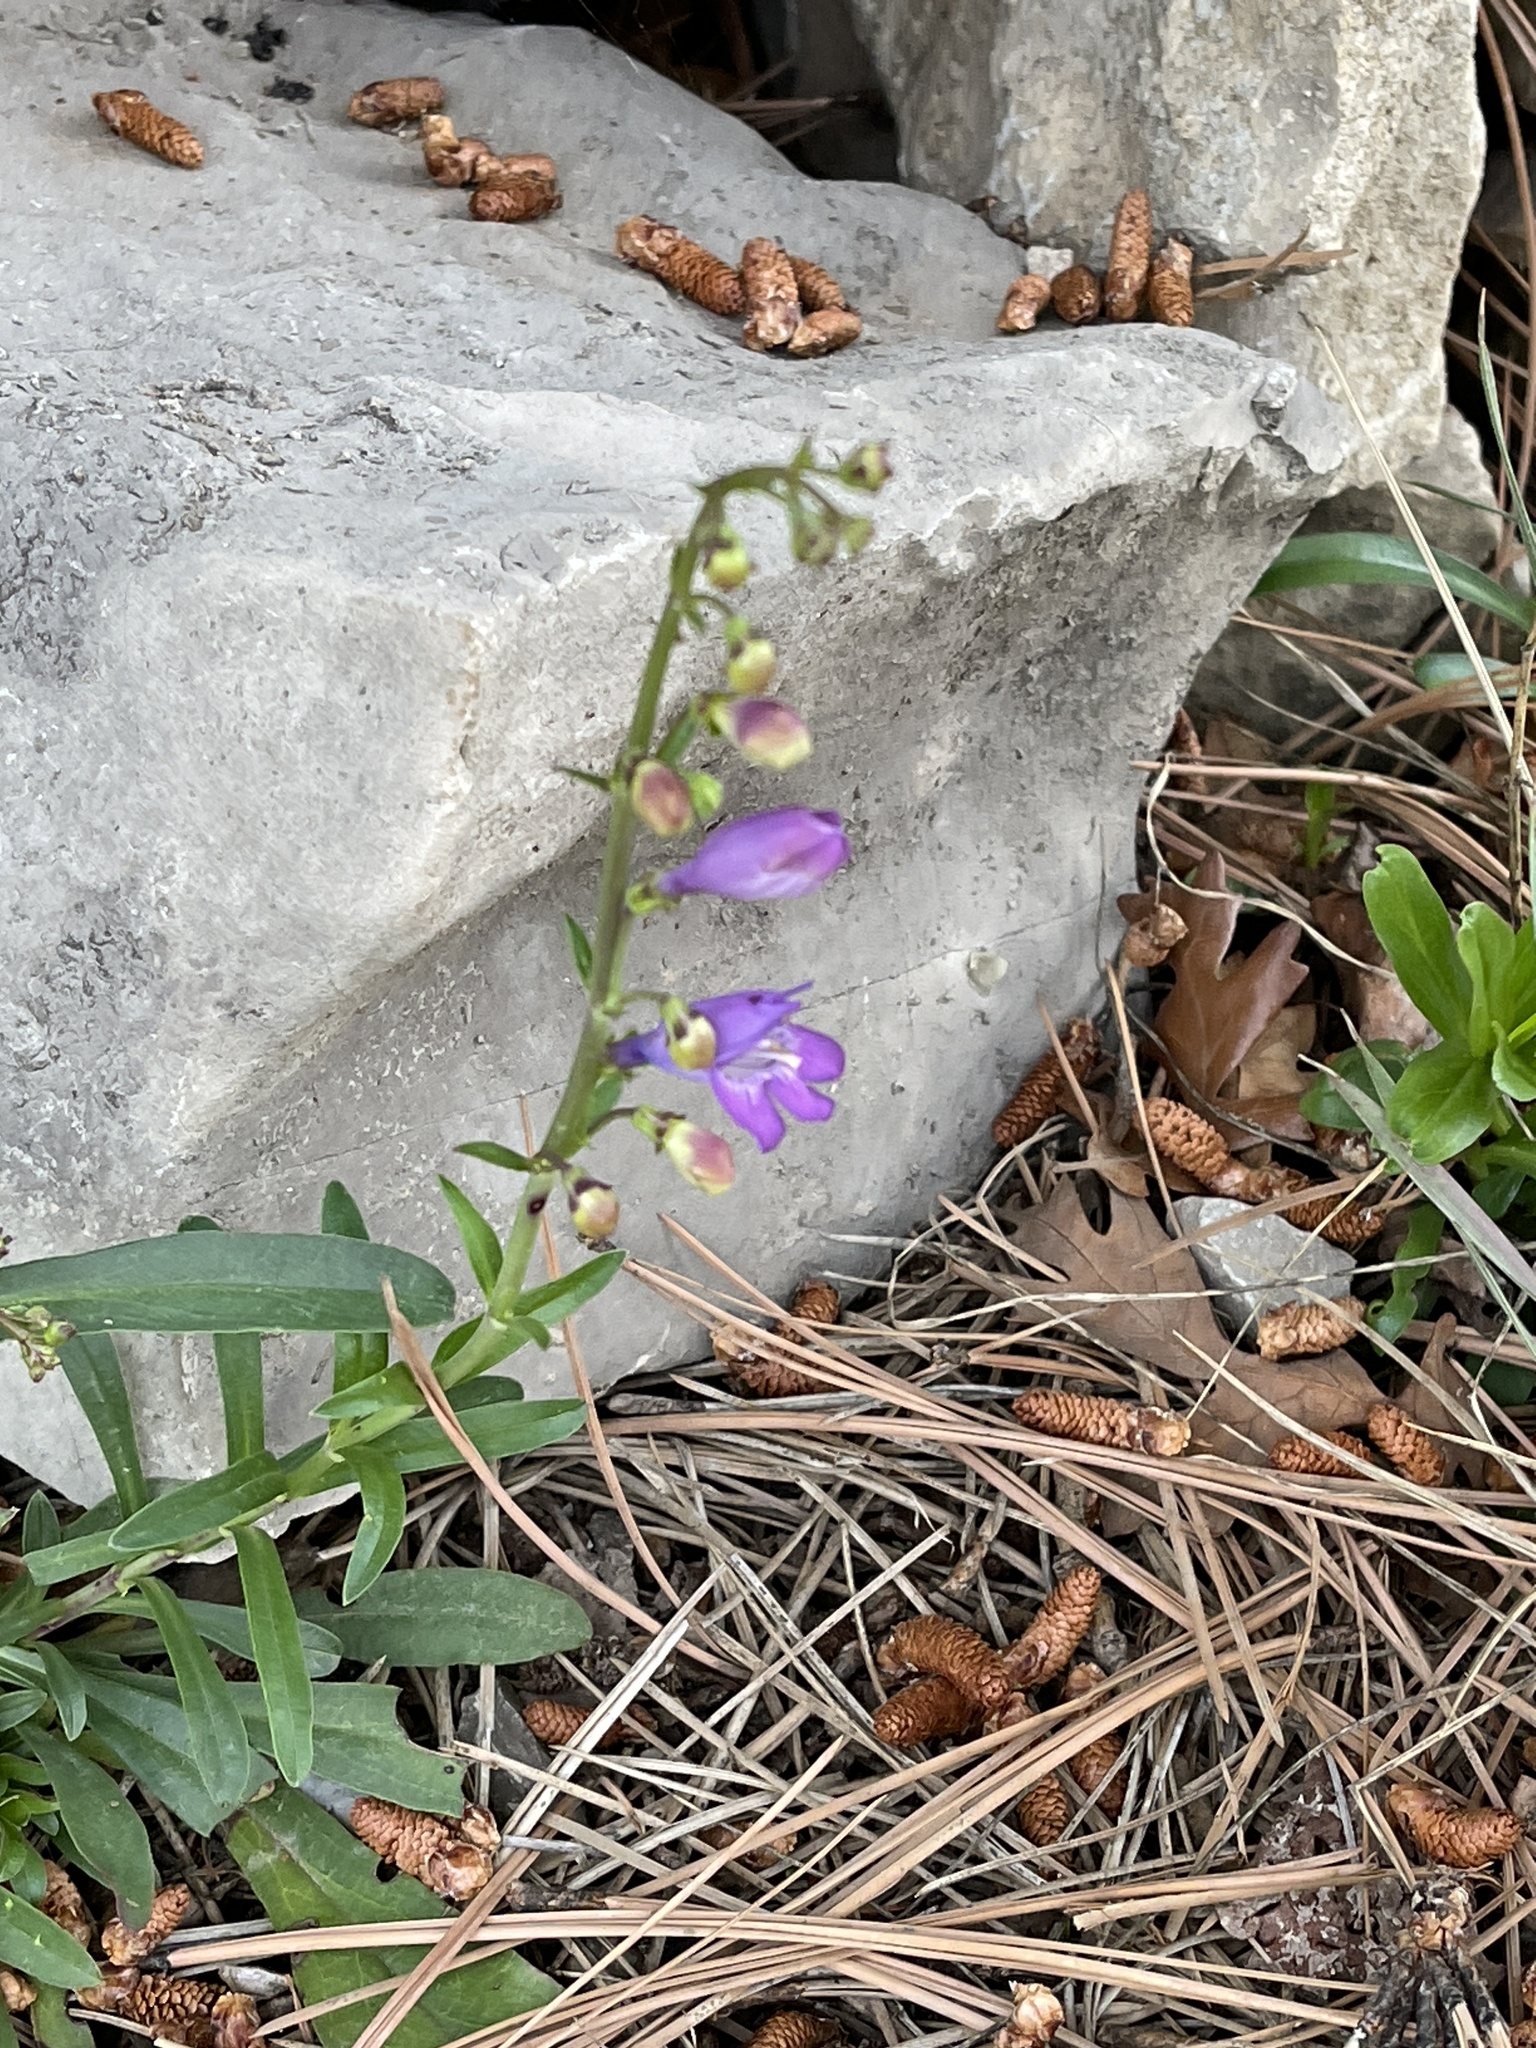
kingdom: Plantae
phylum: Tracheophyta
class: Magnoliopsida
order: Lamiales
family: Plantaginaceae
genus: Penstemon
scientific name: Penstemon neomexicanus
